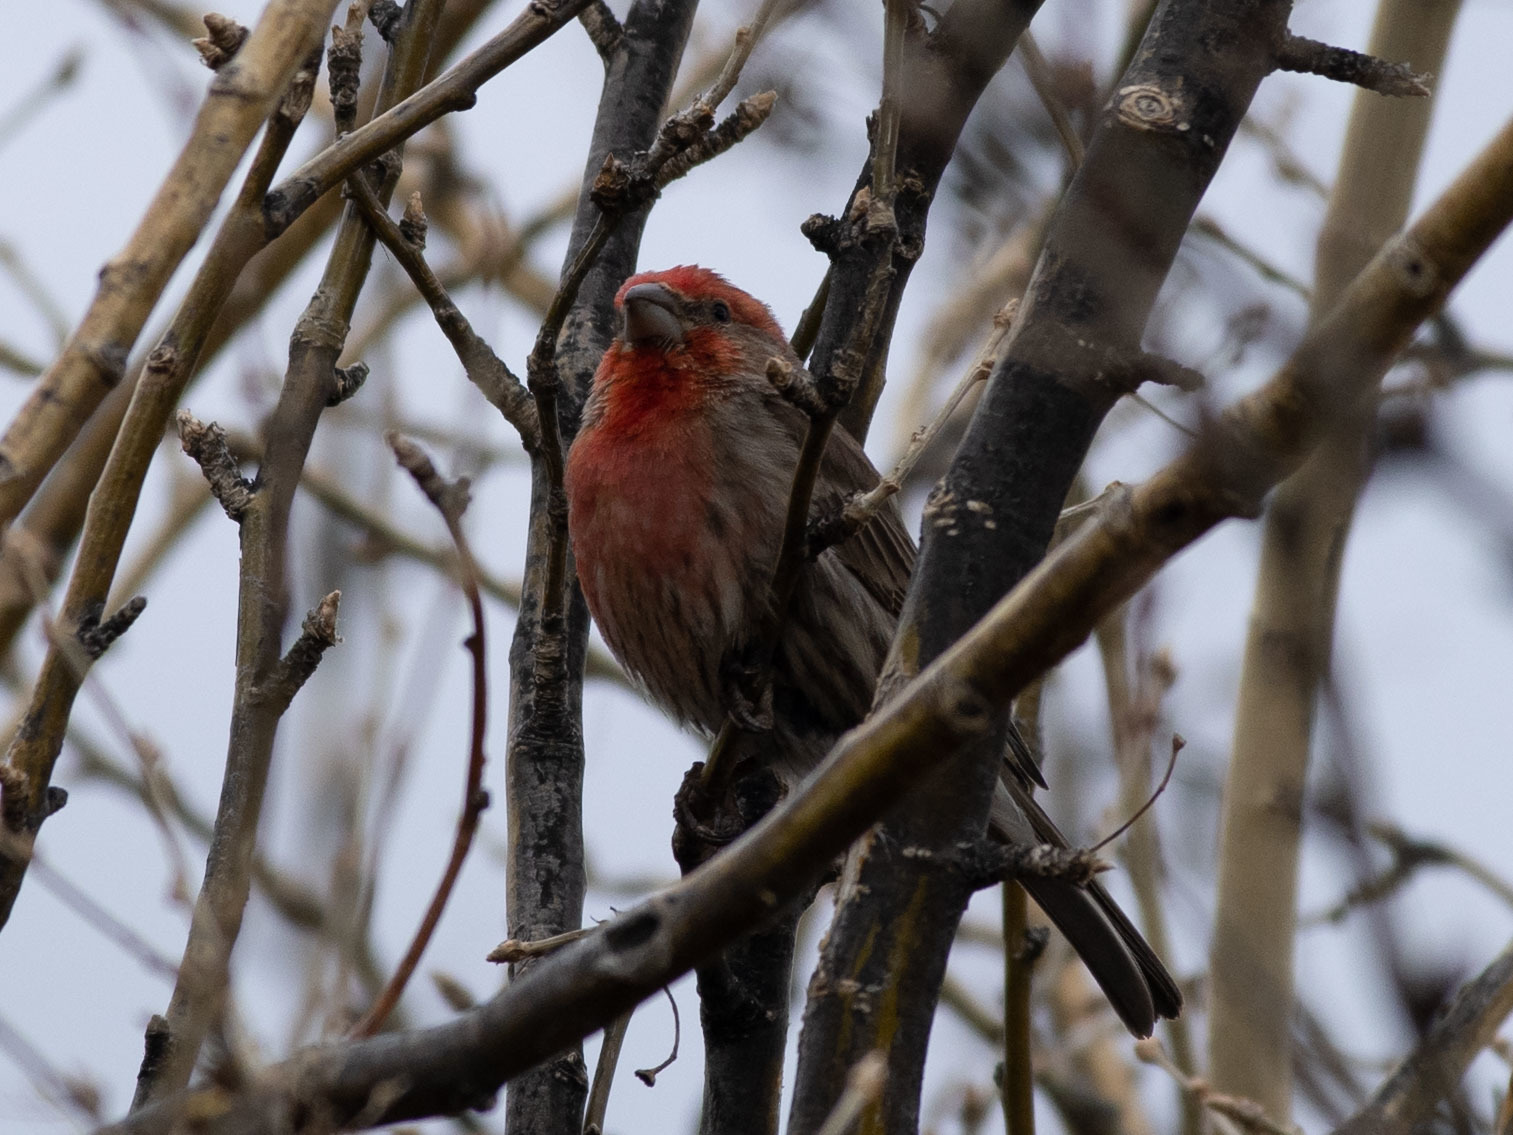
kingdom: Animalia
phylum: Chordata
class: Aves
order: Passeriformes
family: Fringillidae
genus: Haemorhous
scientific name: Haemorhous mexicanus
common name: House finch
